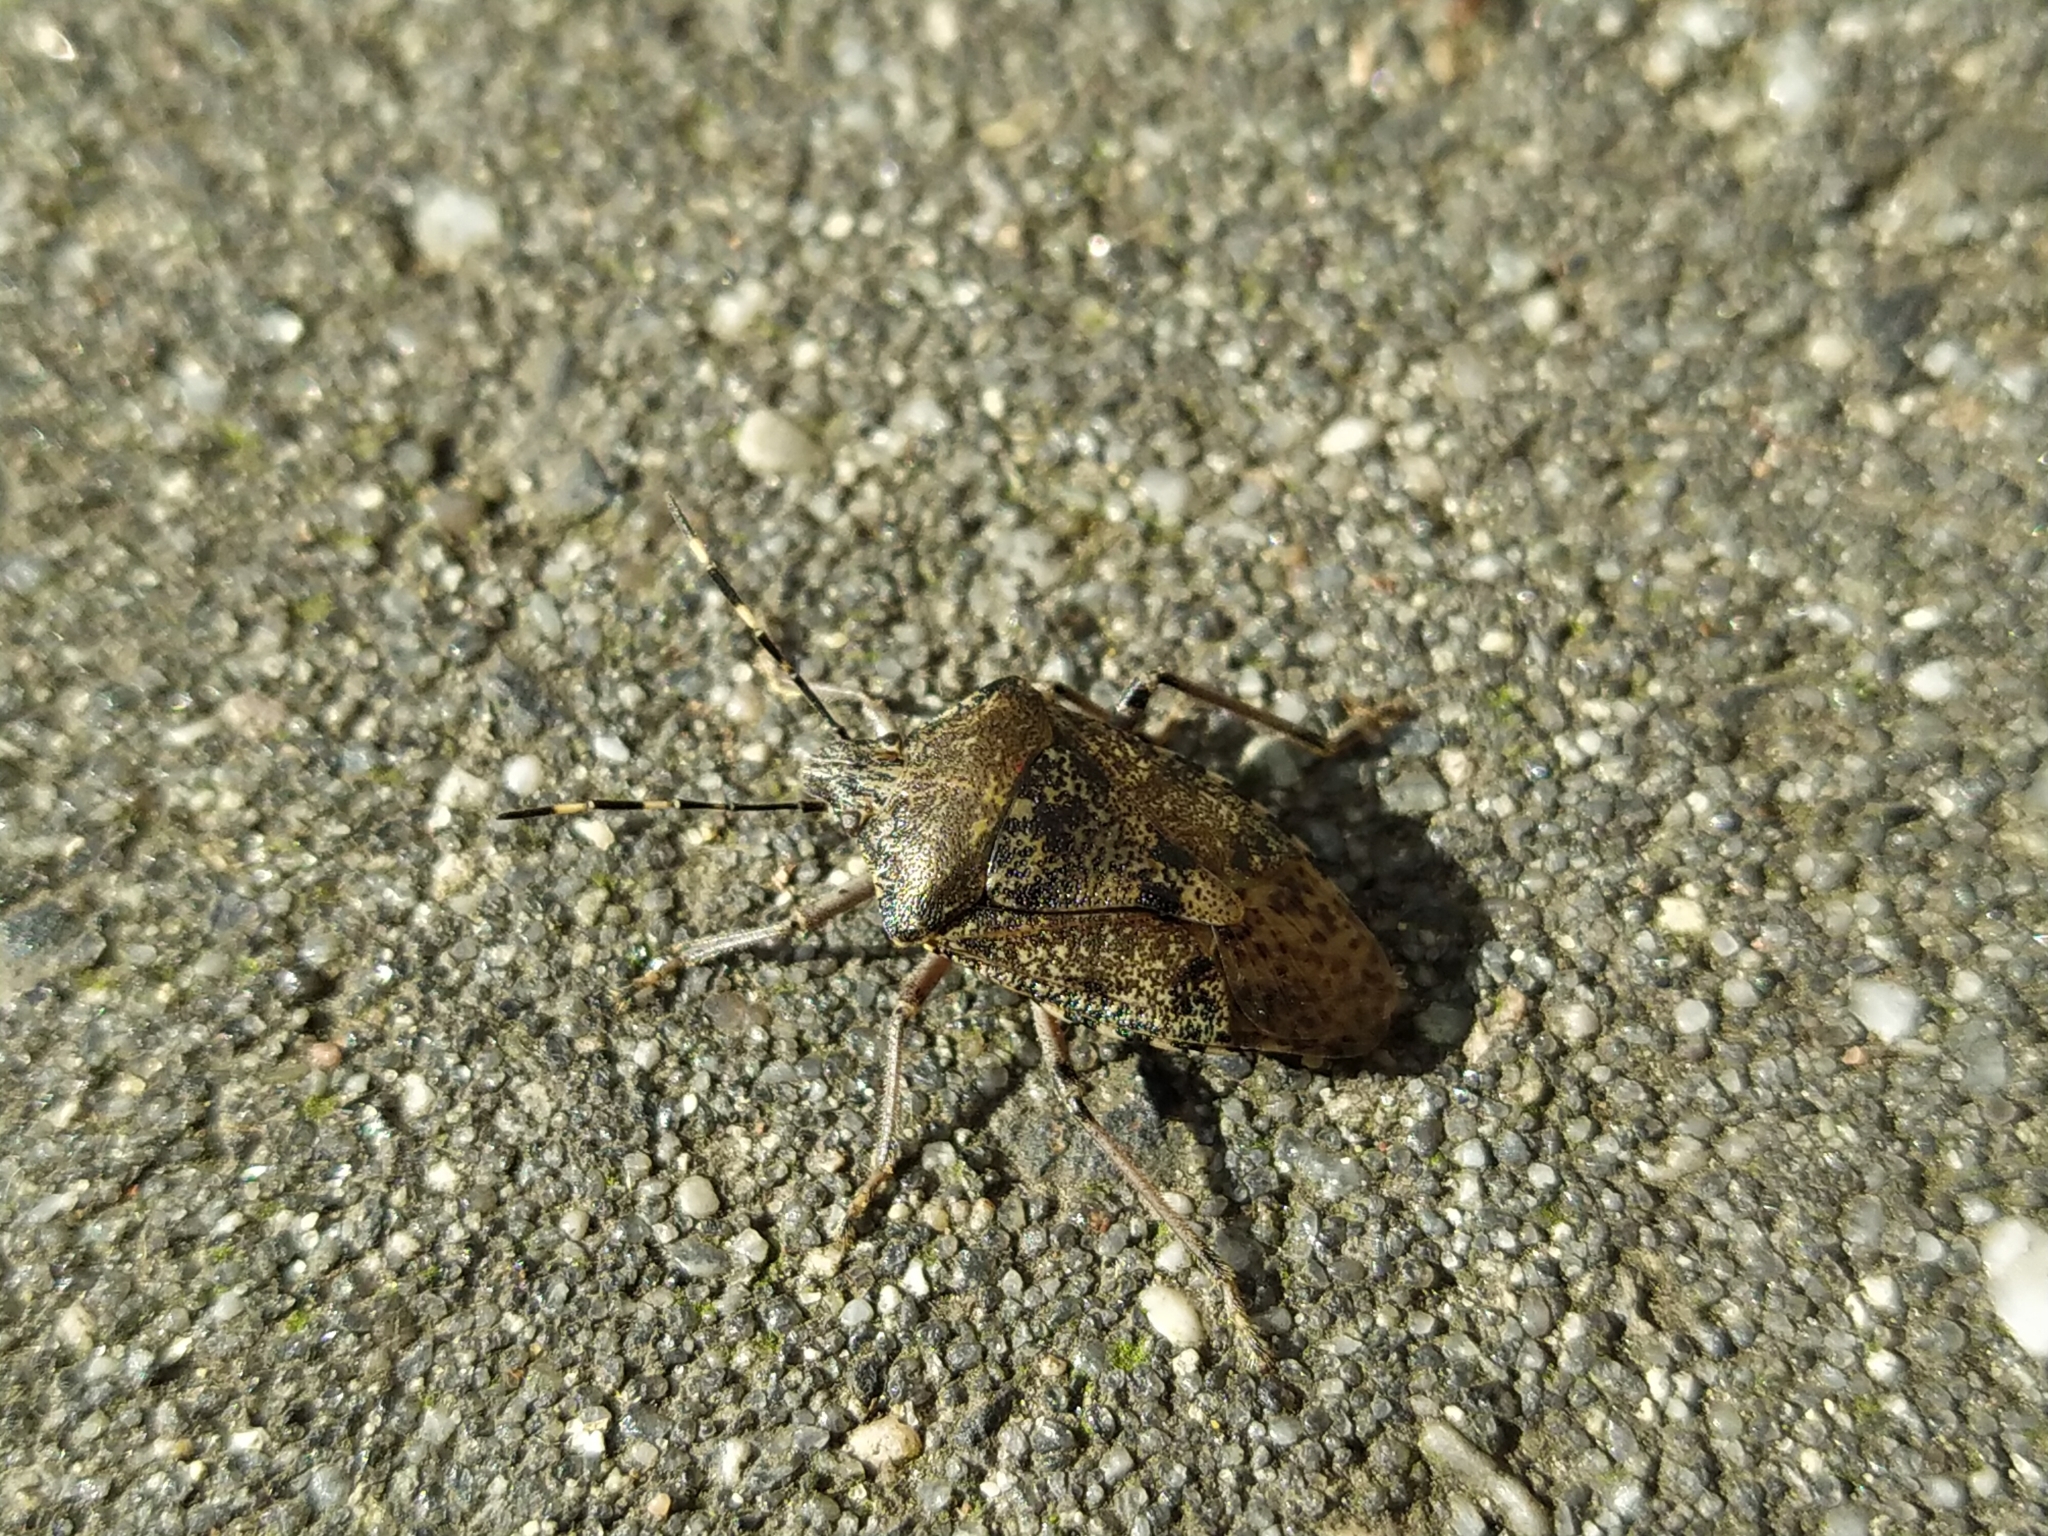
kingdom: Animalia
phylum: Arthropoda
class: Insecta
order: Hemiptera
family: Pentatomidae
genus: Rhaphigaster
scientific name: Rhaphigaster nebulosa
